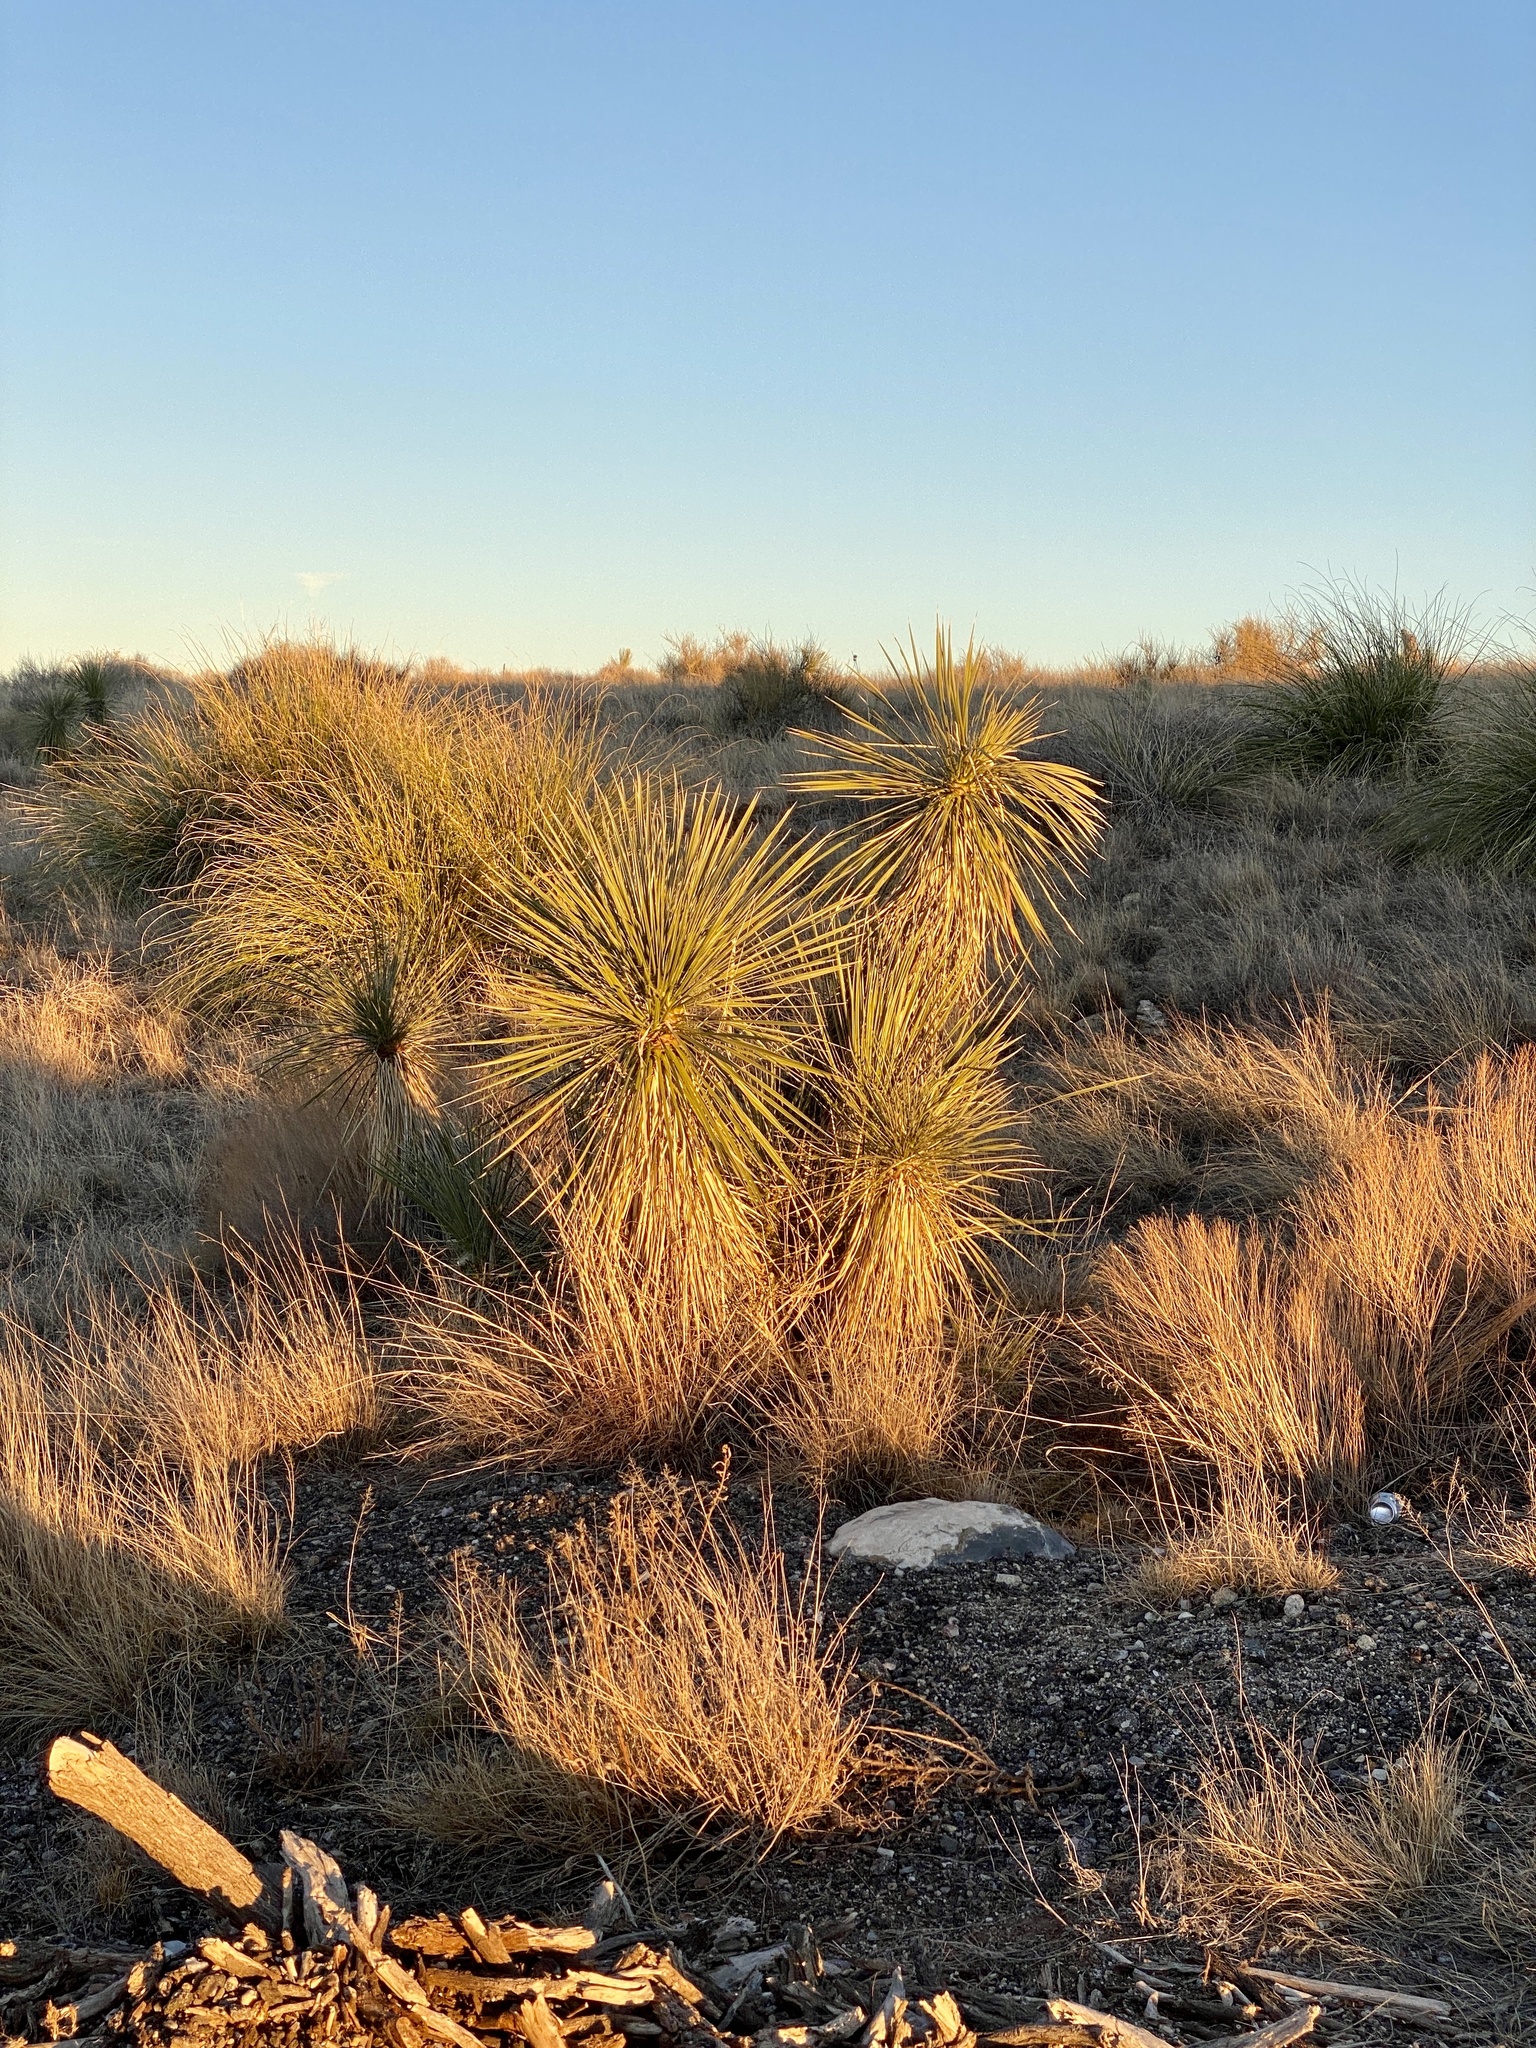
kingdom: Plantae
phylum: Tracheophyta
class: Liliopsida
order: Asparagales
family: Asparagaceae
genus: Yucca
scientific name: Yucca elata
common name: Palmella
